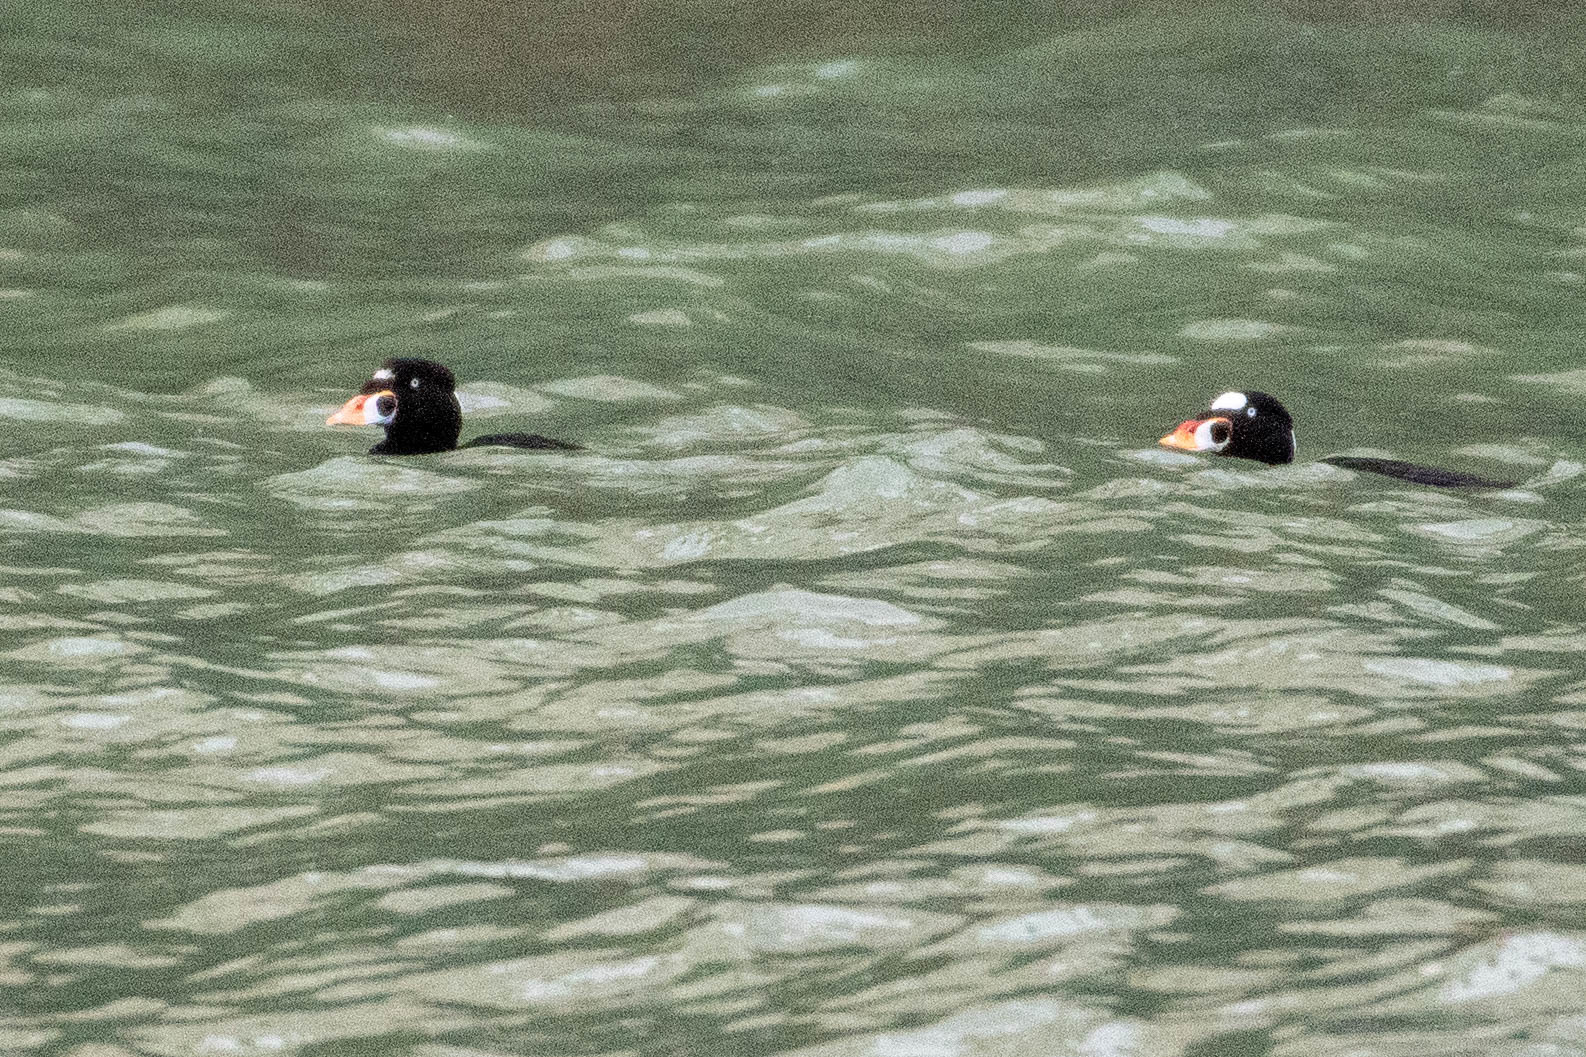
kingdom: Animalia
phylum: Chordata
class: Aves
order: Anseriformes
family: Anatidae
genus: Melanitta
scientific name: Melanitta perspicillata
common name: Surf scoter
